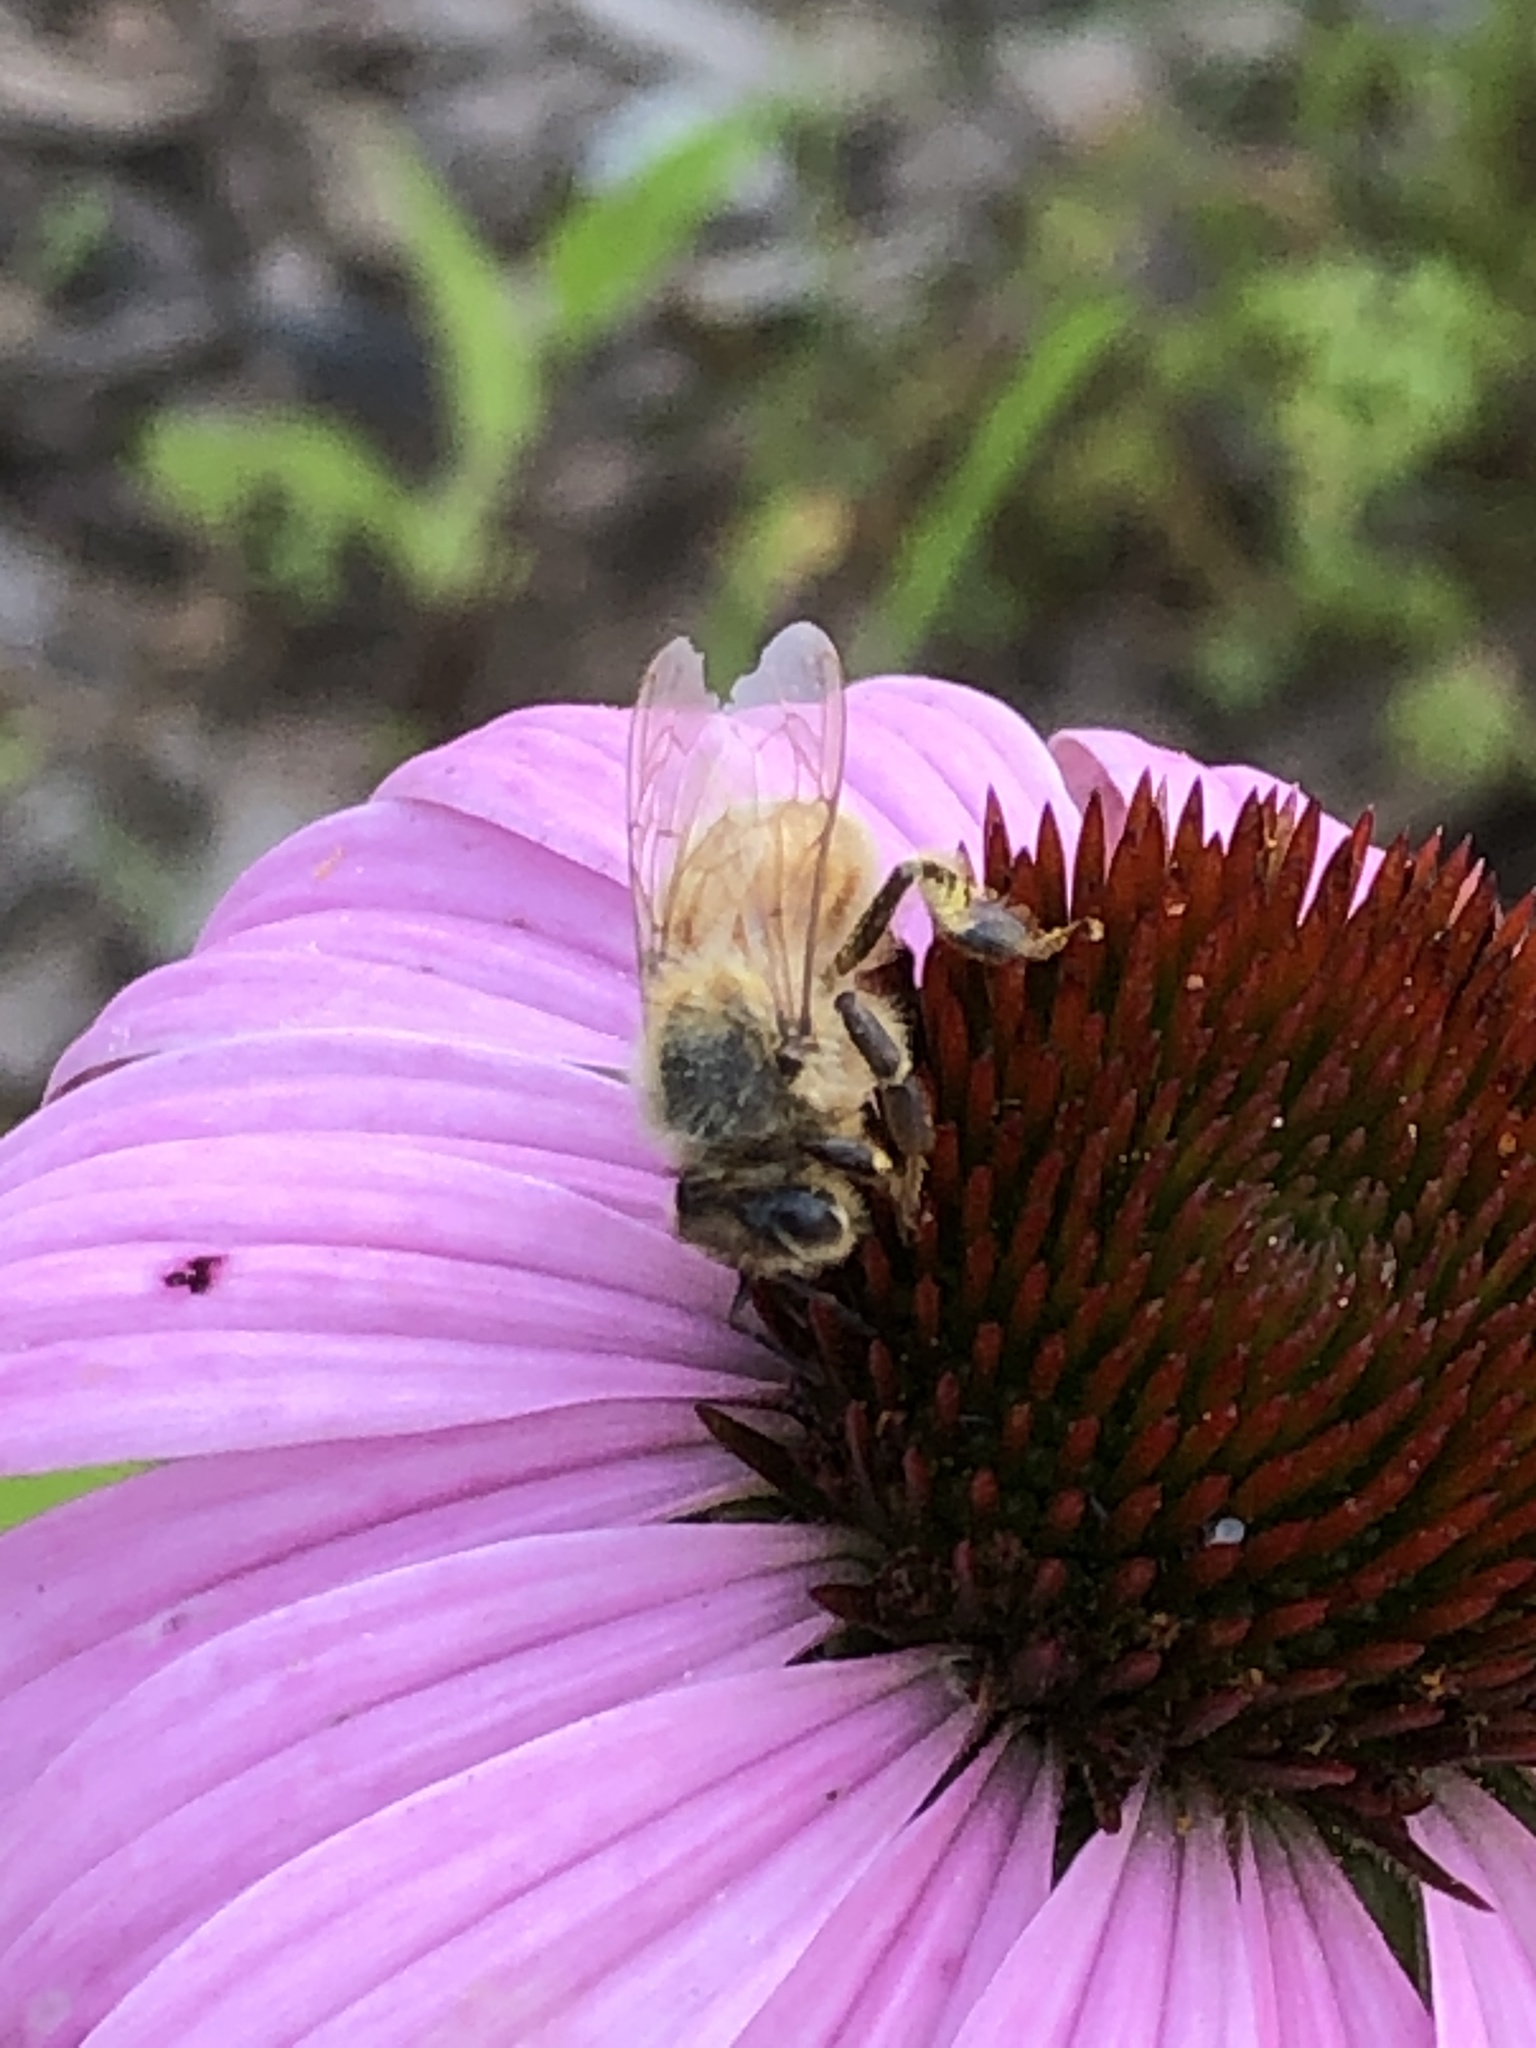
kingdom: Animalia
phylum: Arthropoda
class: Insecta
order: Hymenoptera
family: Apidae
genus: Apis
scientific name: Apis mellifera
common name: Honey bee
